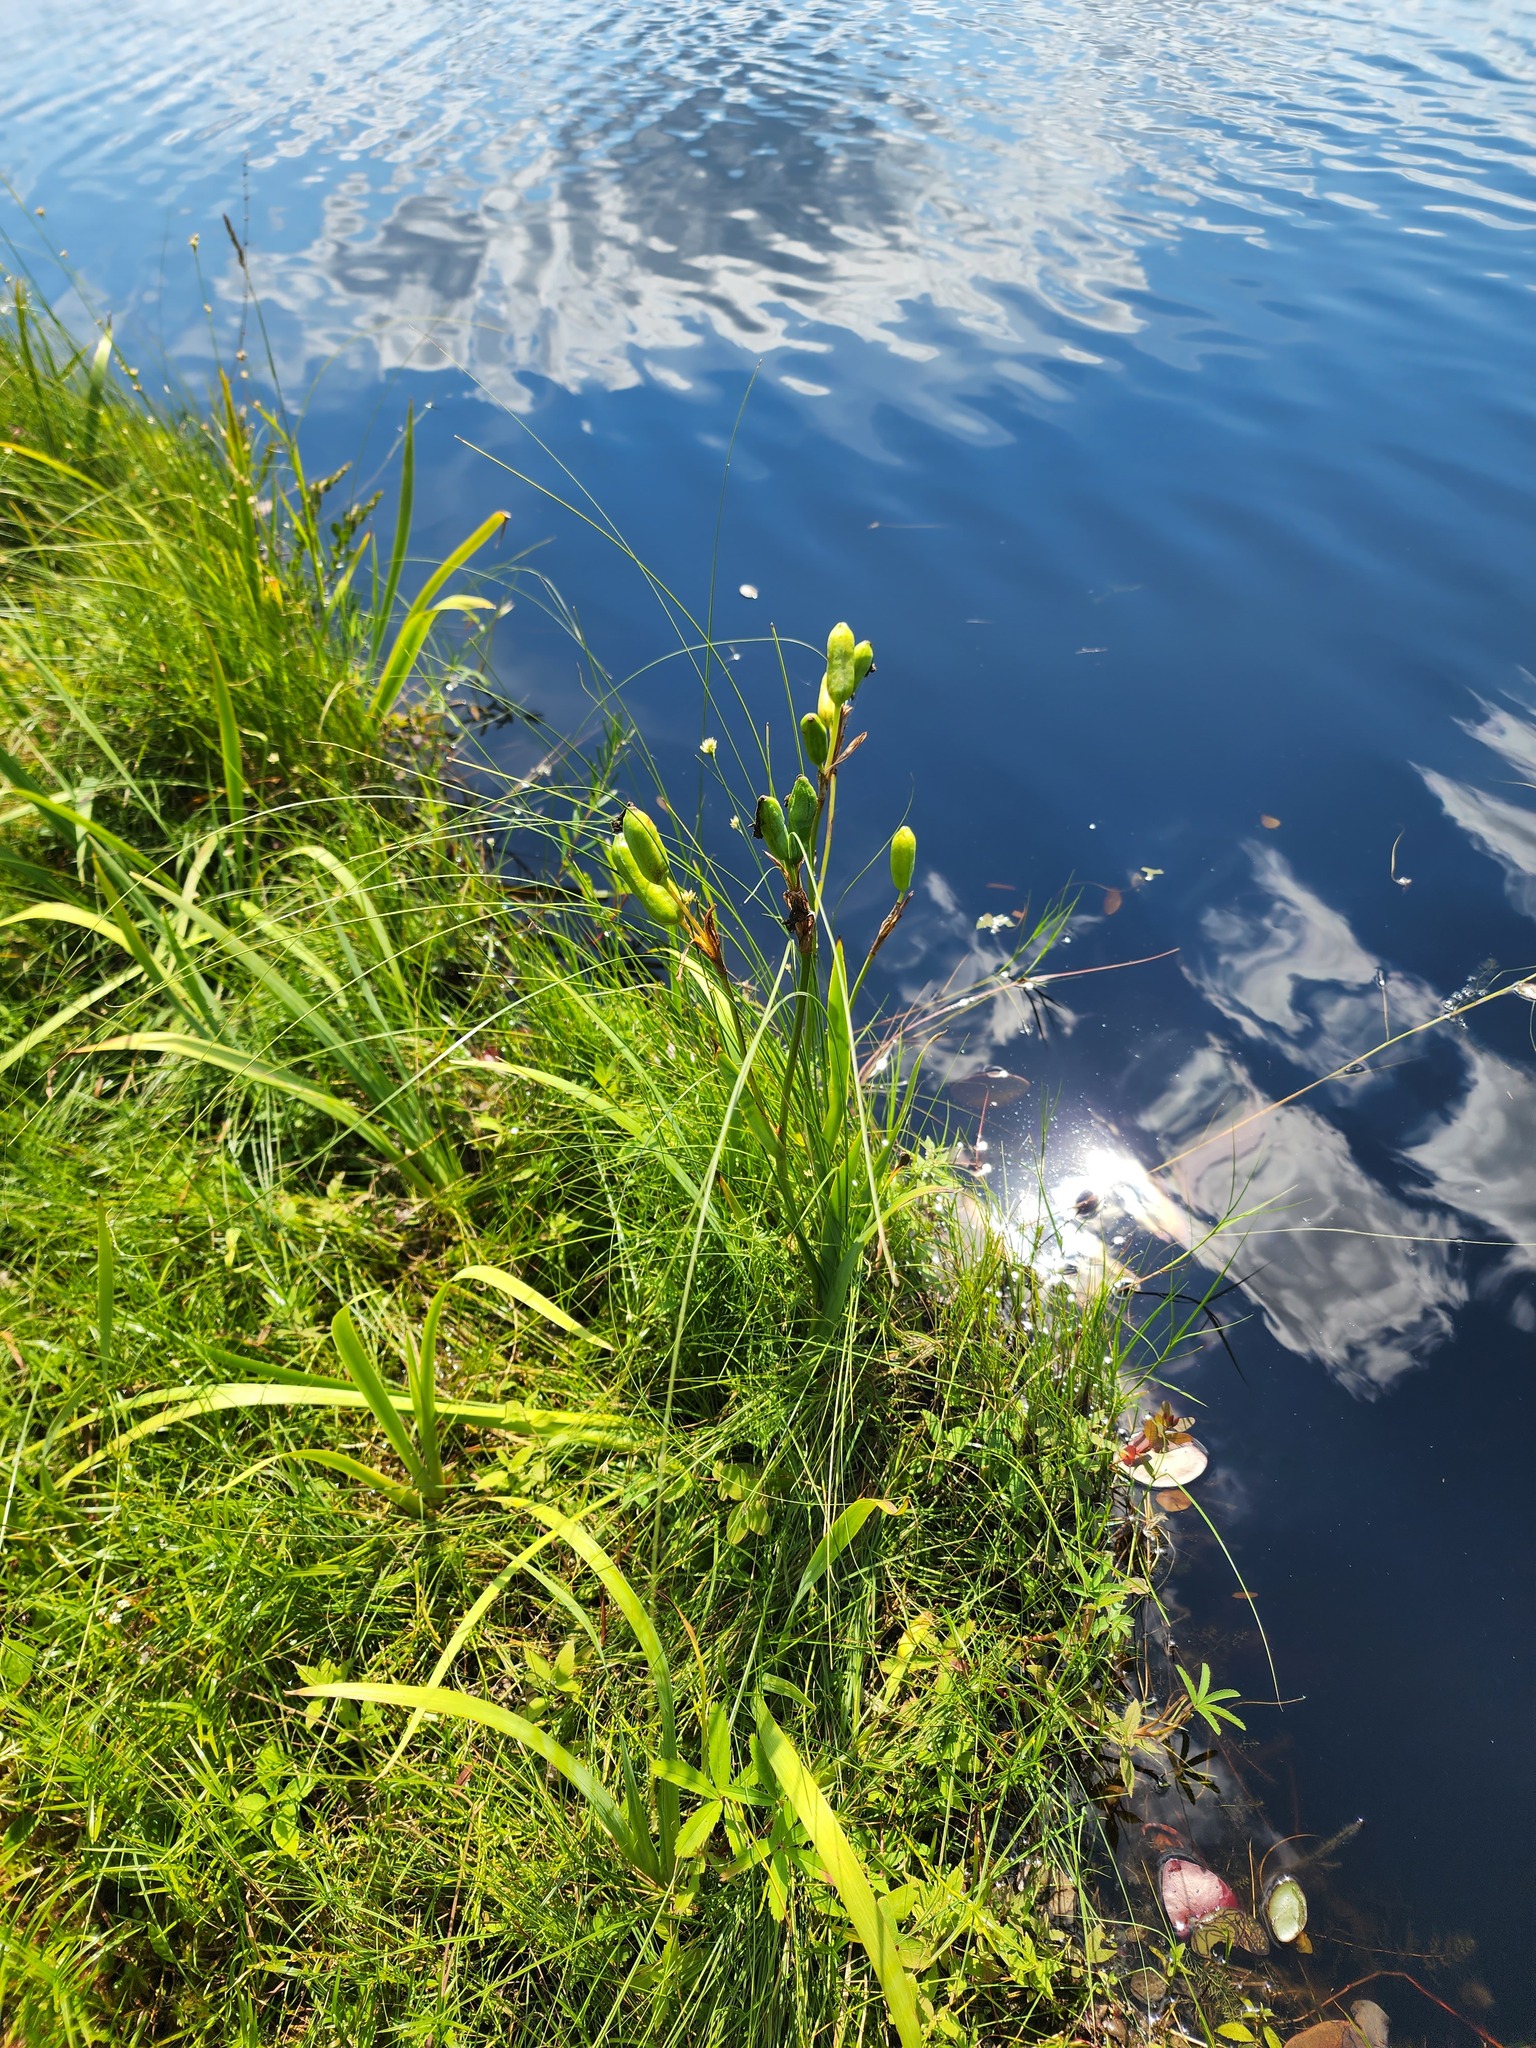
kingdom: Plantae
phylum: Tracheophyta
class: Liliopsida
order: Asparagales
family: Iridaceae
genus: Iris
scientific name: Iris versicolor
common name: Purple iris
